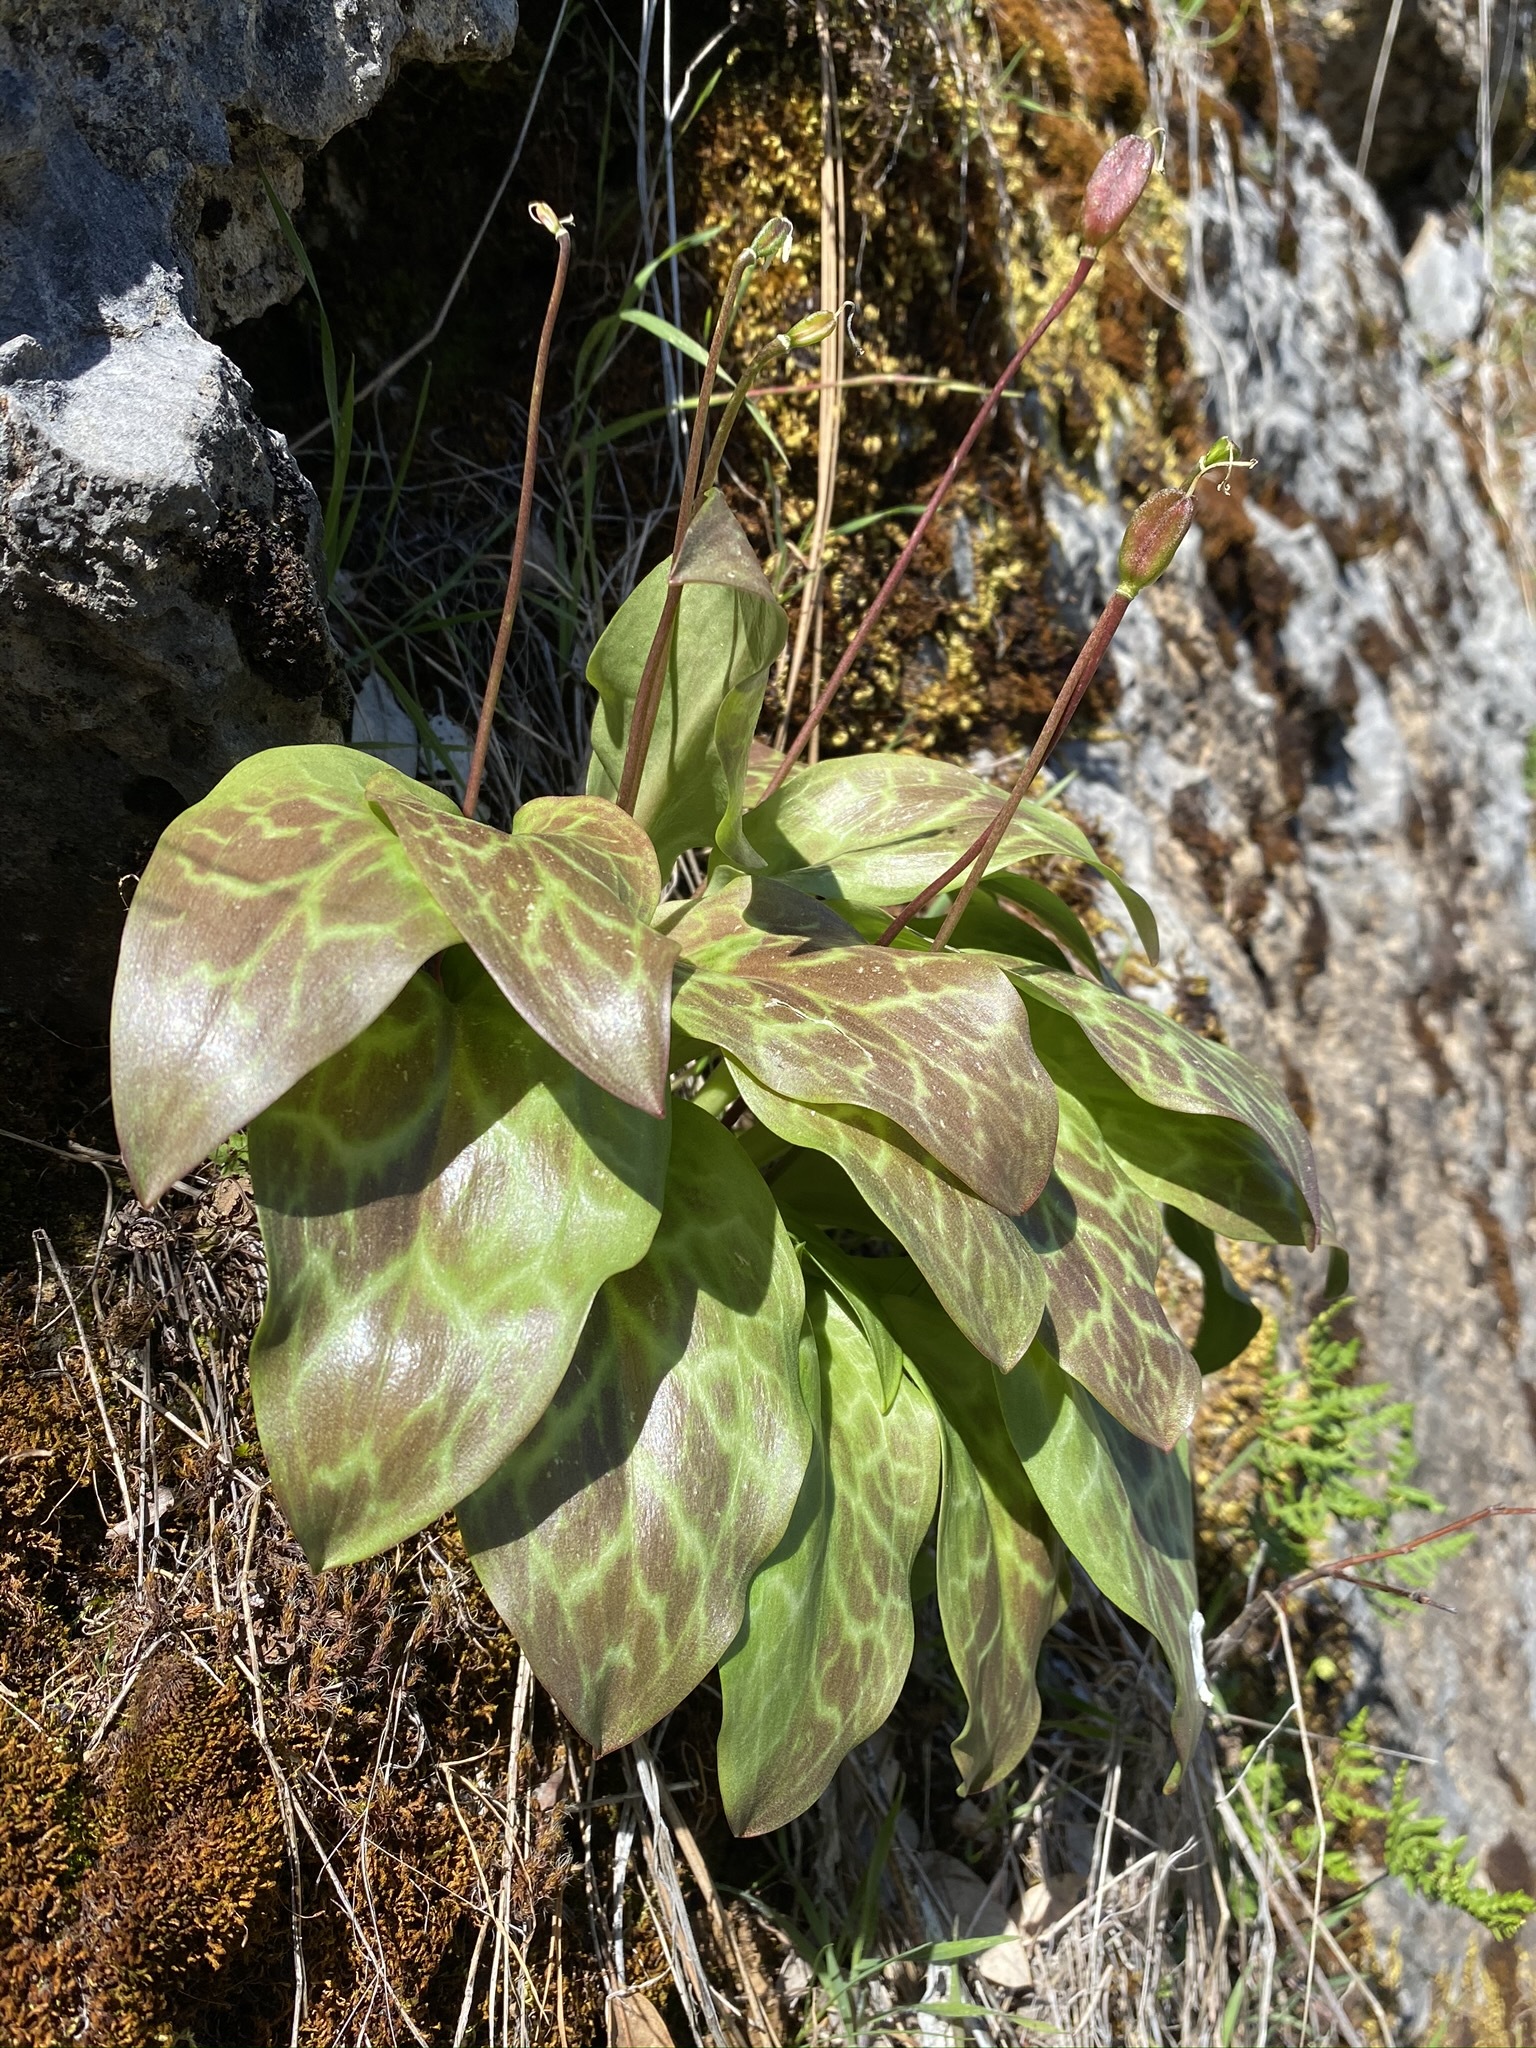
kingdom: Plantae
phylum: Tracheophyta
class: Liliopsida
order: Liliales
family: Liliaceae
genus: Erythronium
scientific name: Erythronium shastense
